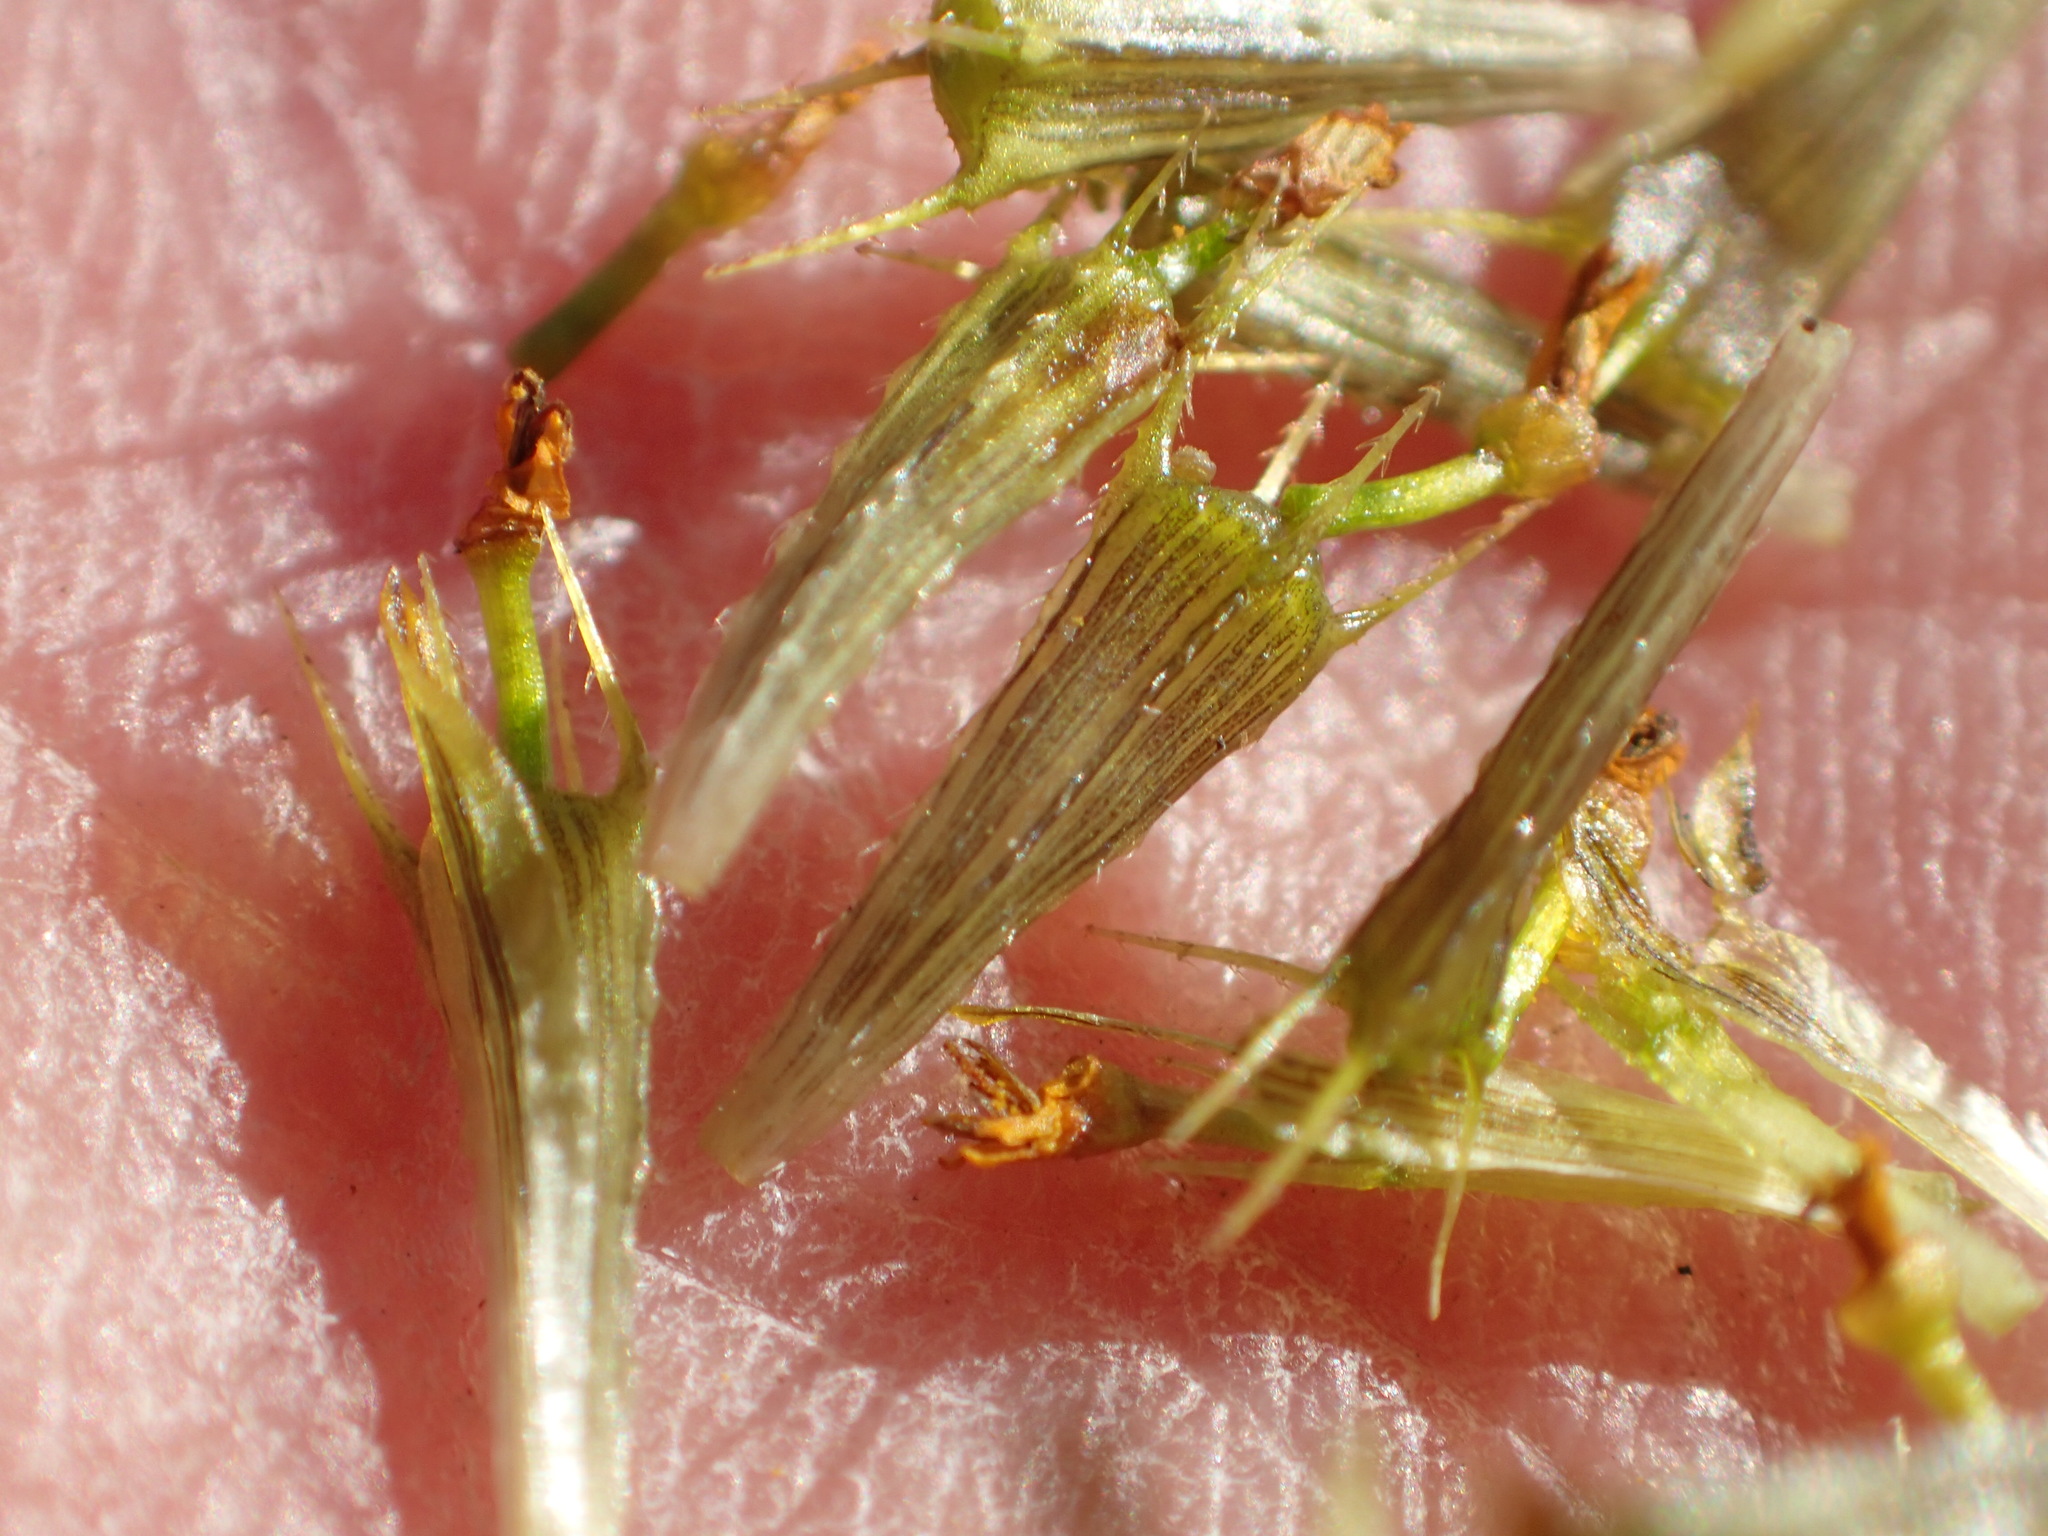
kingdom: Plantae
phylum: Tracheophyta
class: Magnoliopsida
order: Asterales
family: Asteraceae
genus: Bidens
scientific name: Bidens cernua
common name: Nodding bur-marigold
